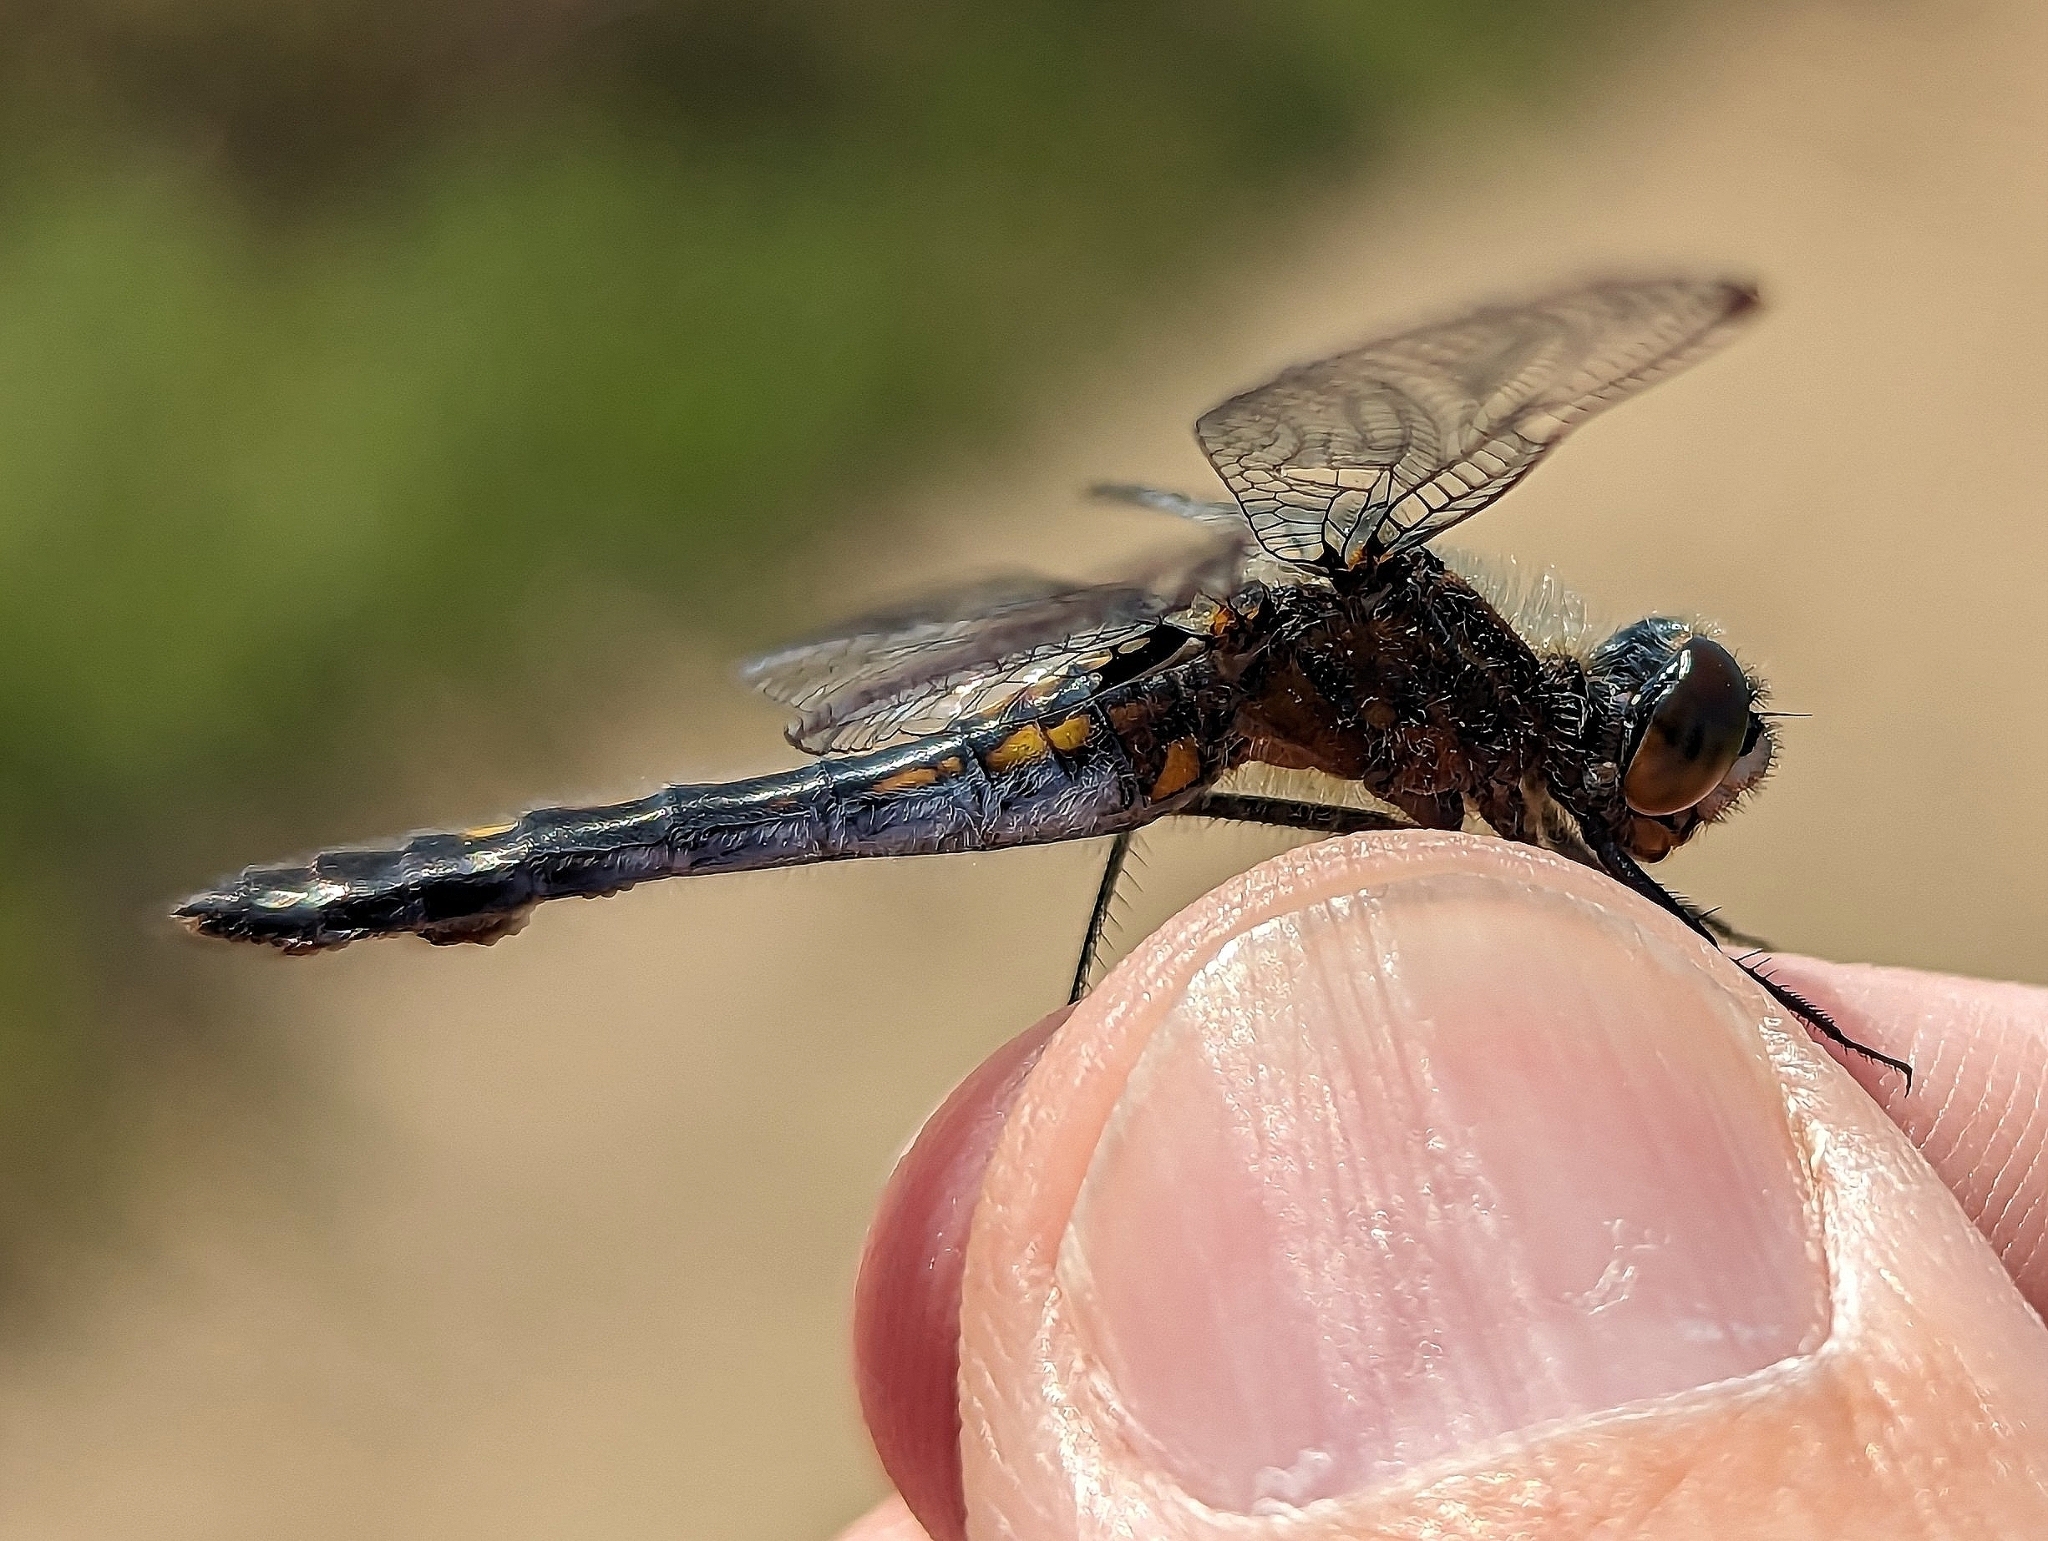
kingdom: Animalia
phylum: Arthropoda
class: Insecta
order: Odonata
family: Libellulidae
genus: Leucorrhinia
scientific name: Leucorrhinia intacta
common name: Dot-tailed whiteface
